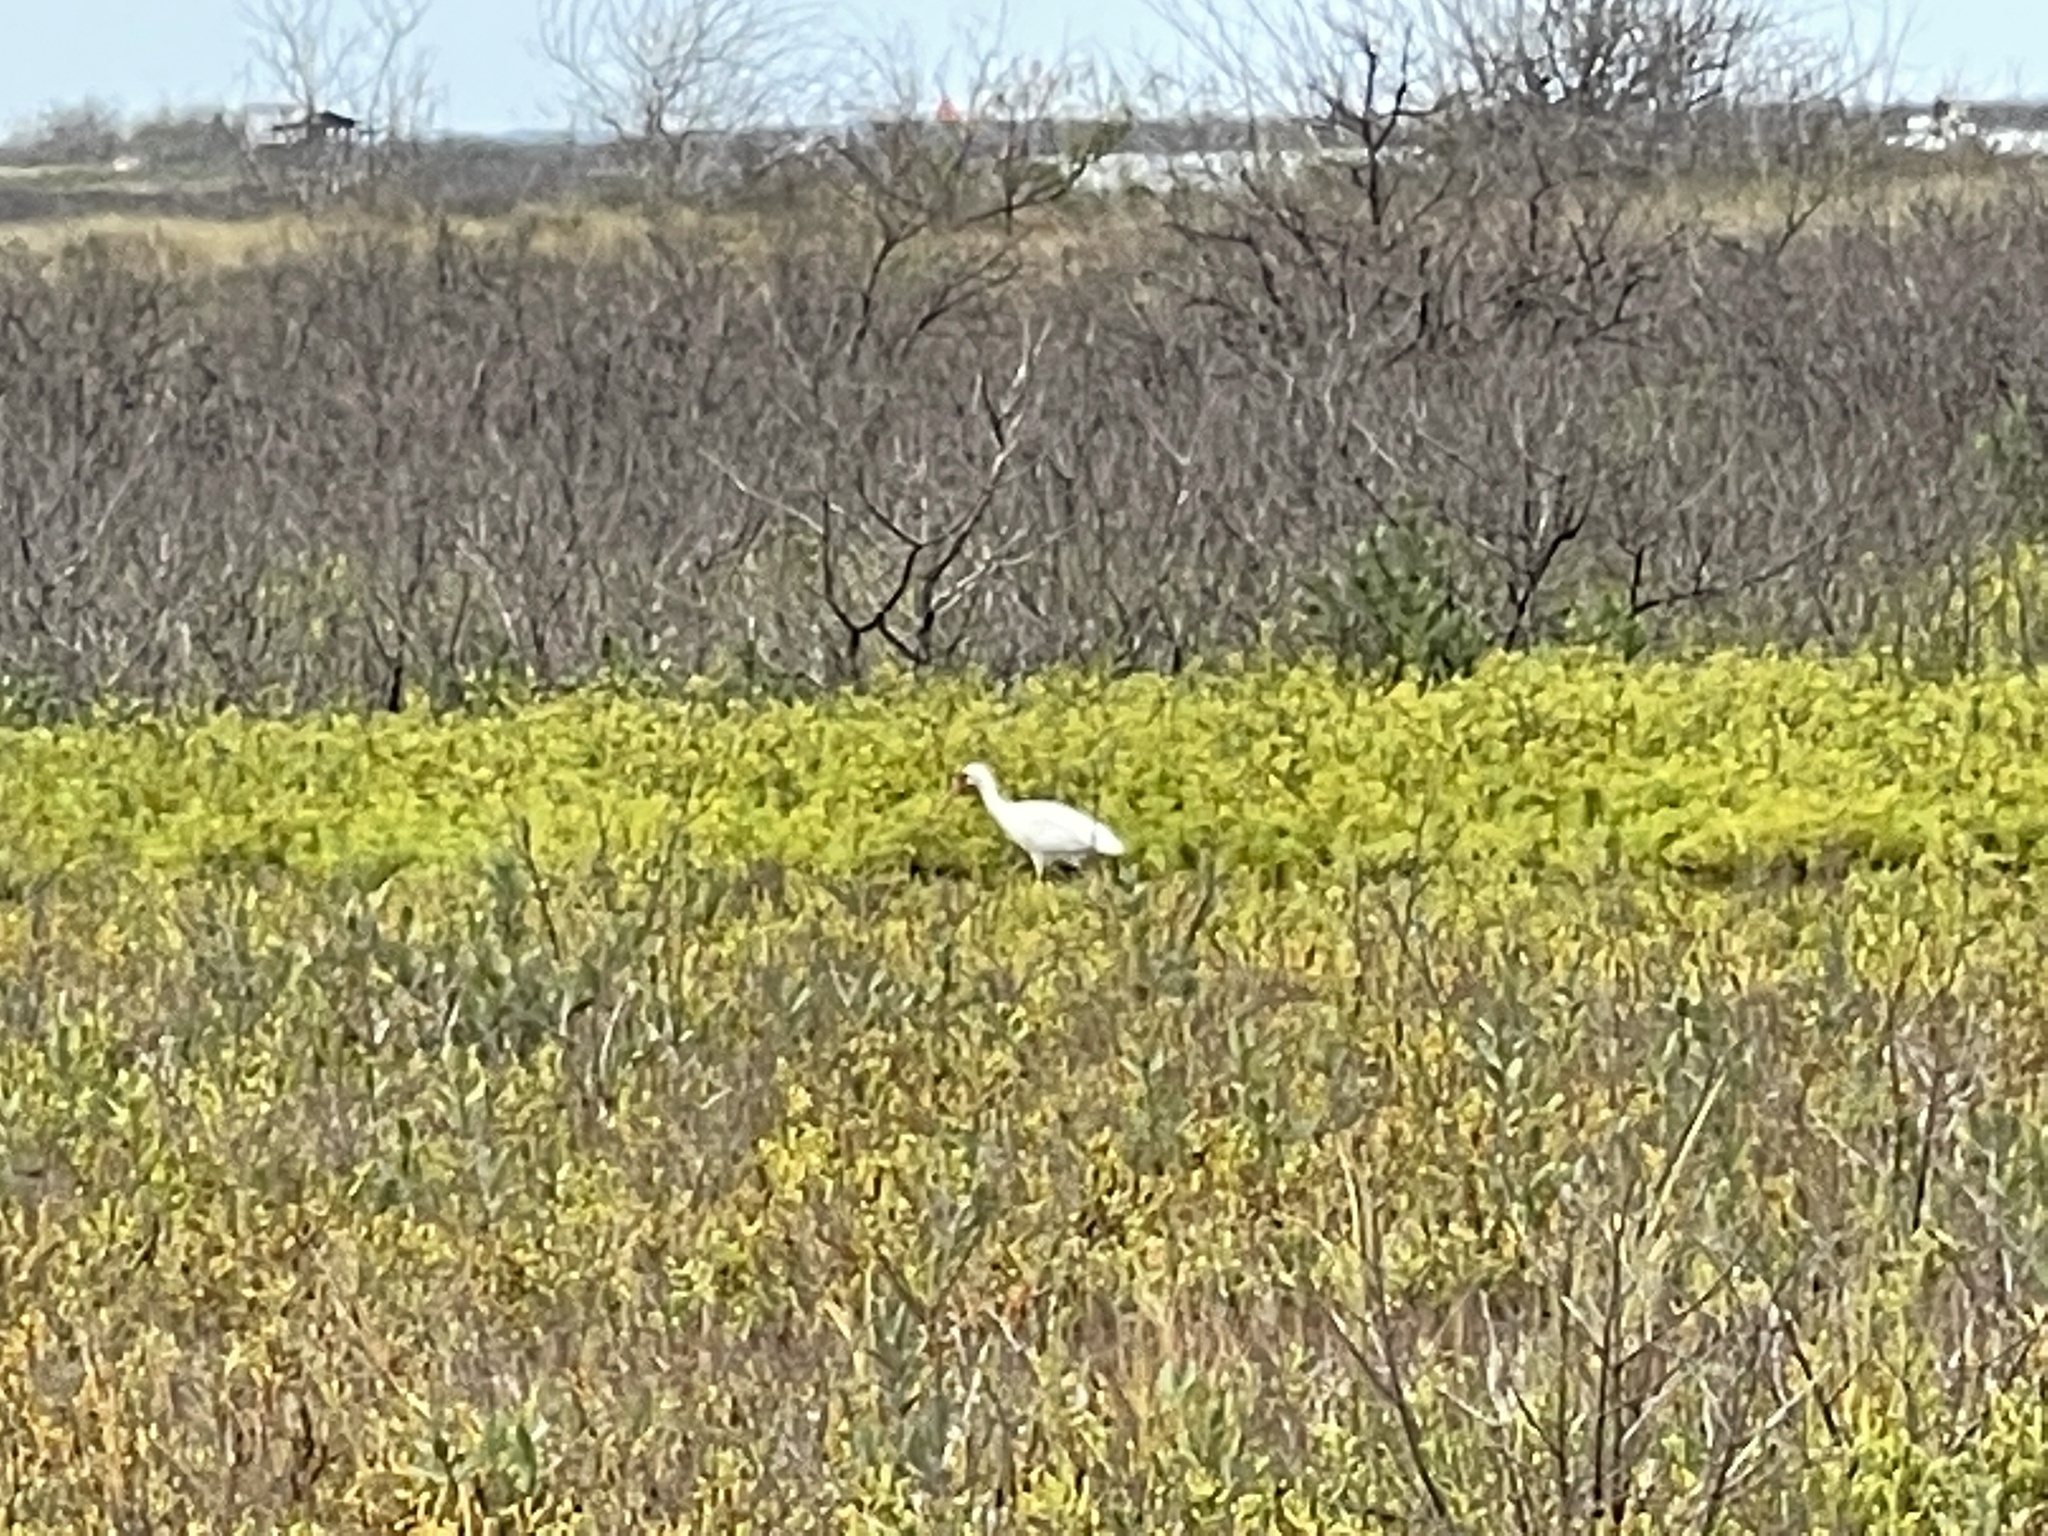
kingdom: Animalia
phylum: Chordata
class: Aves
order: Pelecaniformes
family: Threskiornithidae
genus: Eudocimus
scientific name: Eudocimus albus
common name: White ibis
